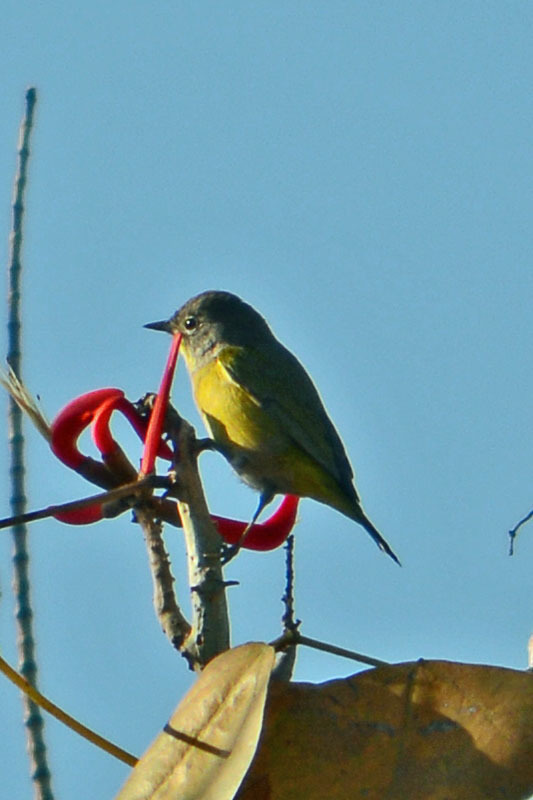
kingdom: Animalia
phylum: Chordata
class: Aves
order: Passeriformes
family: Parulidae
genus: Leiothlypis
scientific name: Leiothlypis ruficapilla
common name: Nashville warbler
